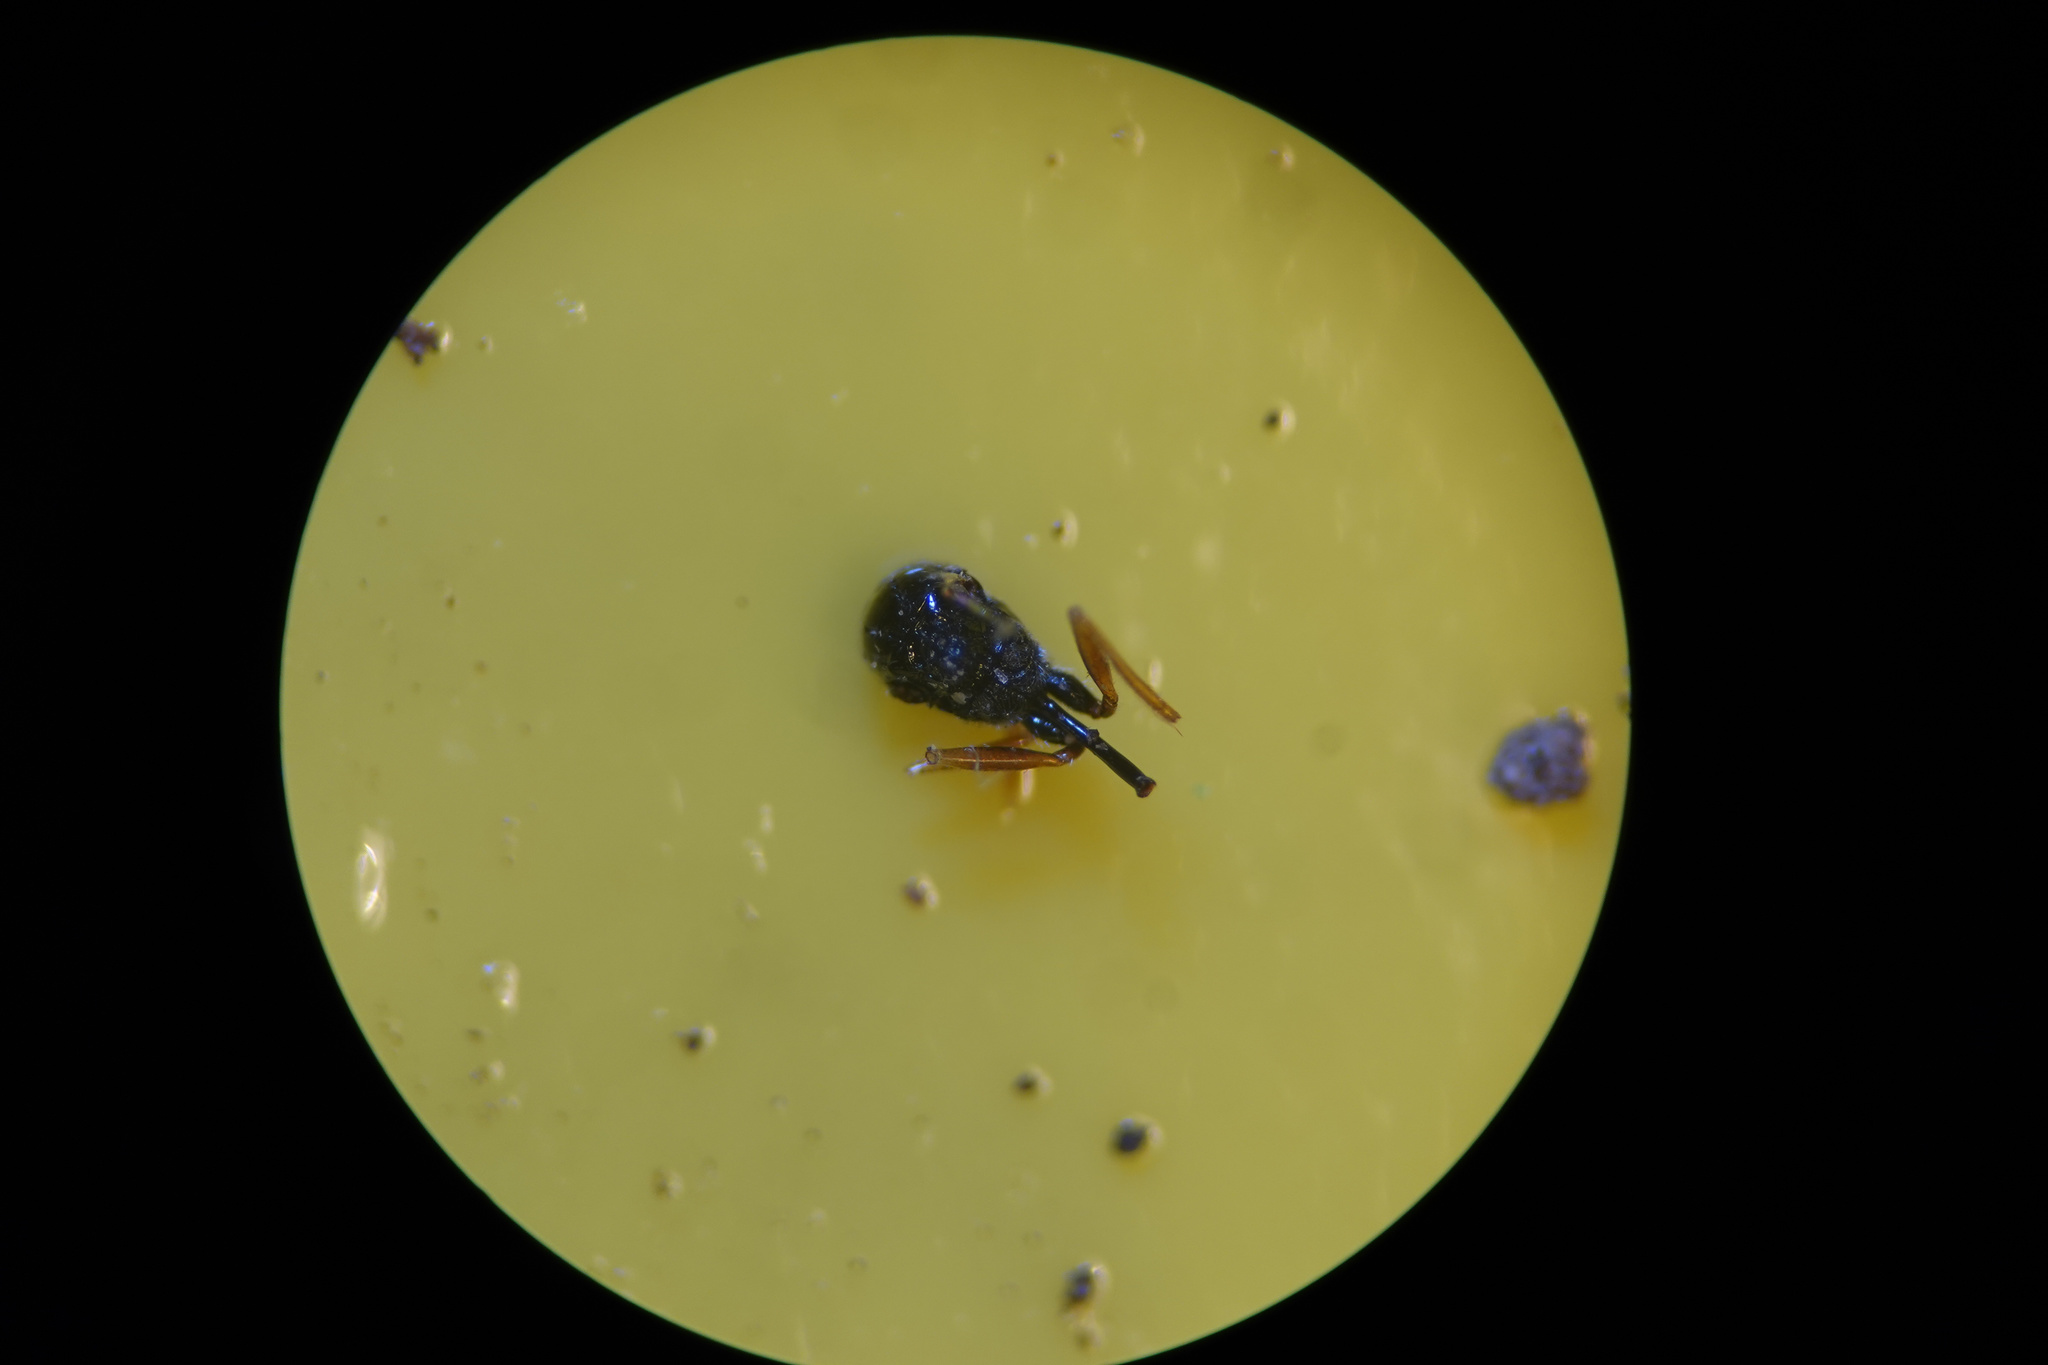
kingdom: Animalia
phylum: Arthropoda
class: Insecta
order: Hymenoptera
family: Figitidae
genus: Anacharis
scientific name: Anacharis zealandica
